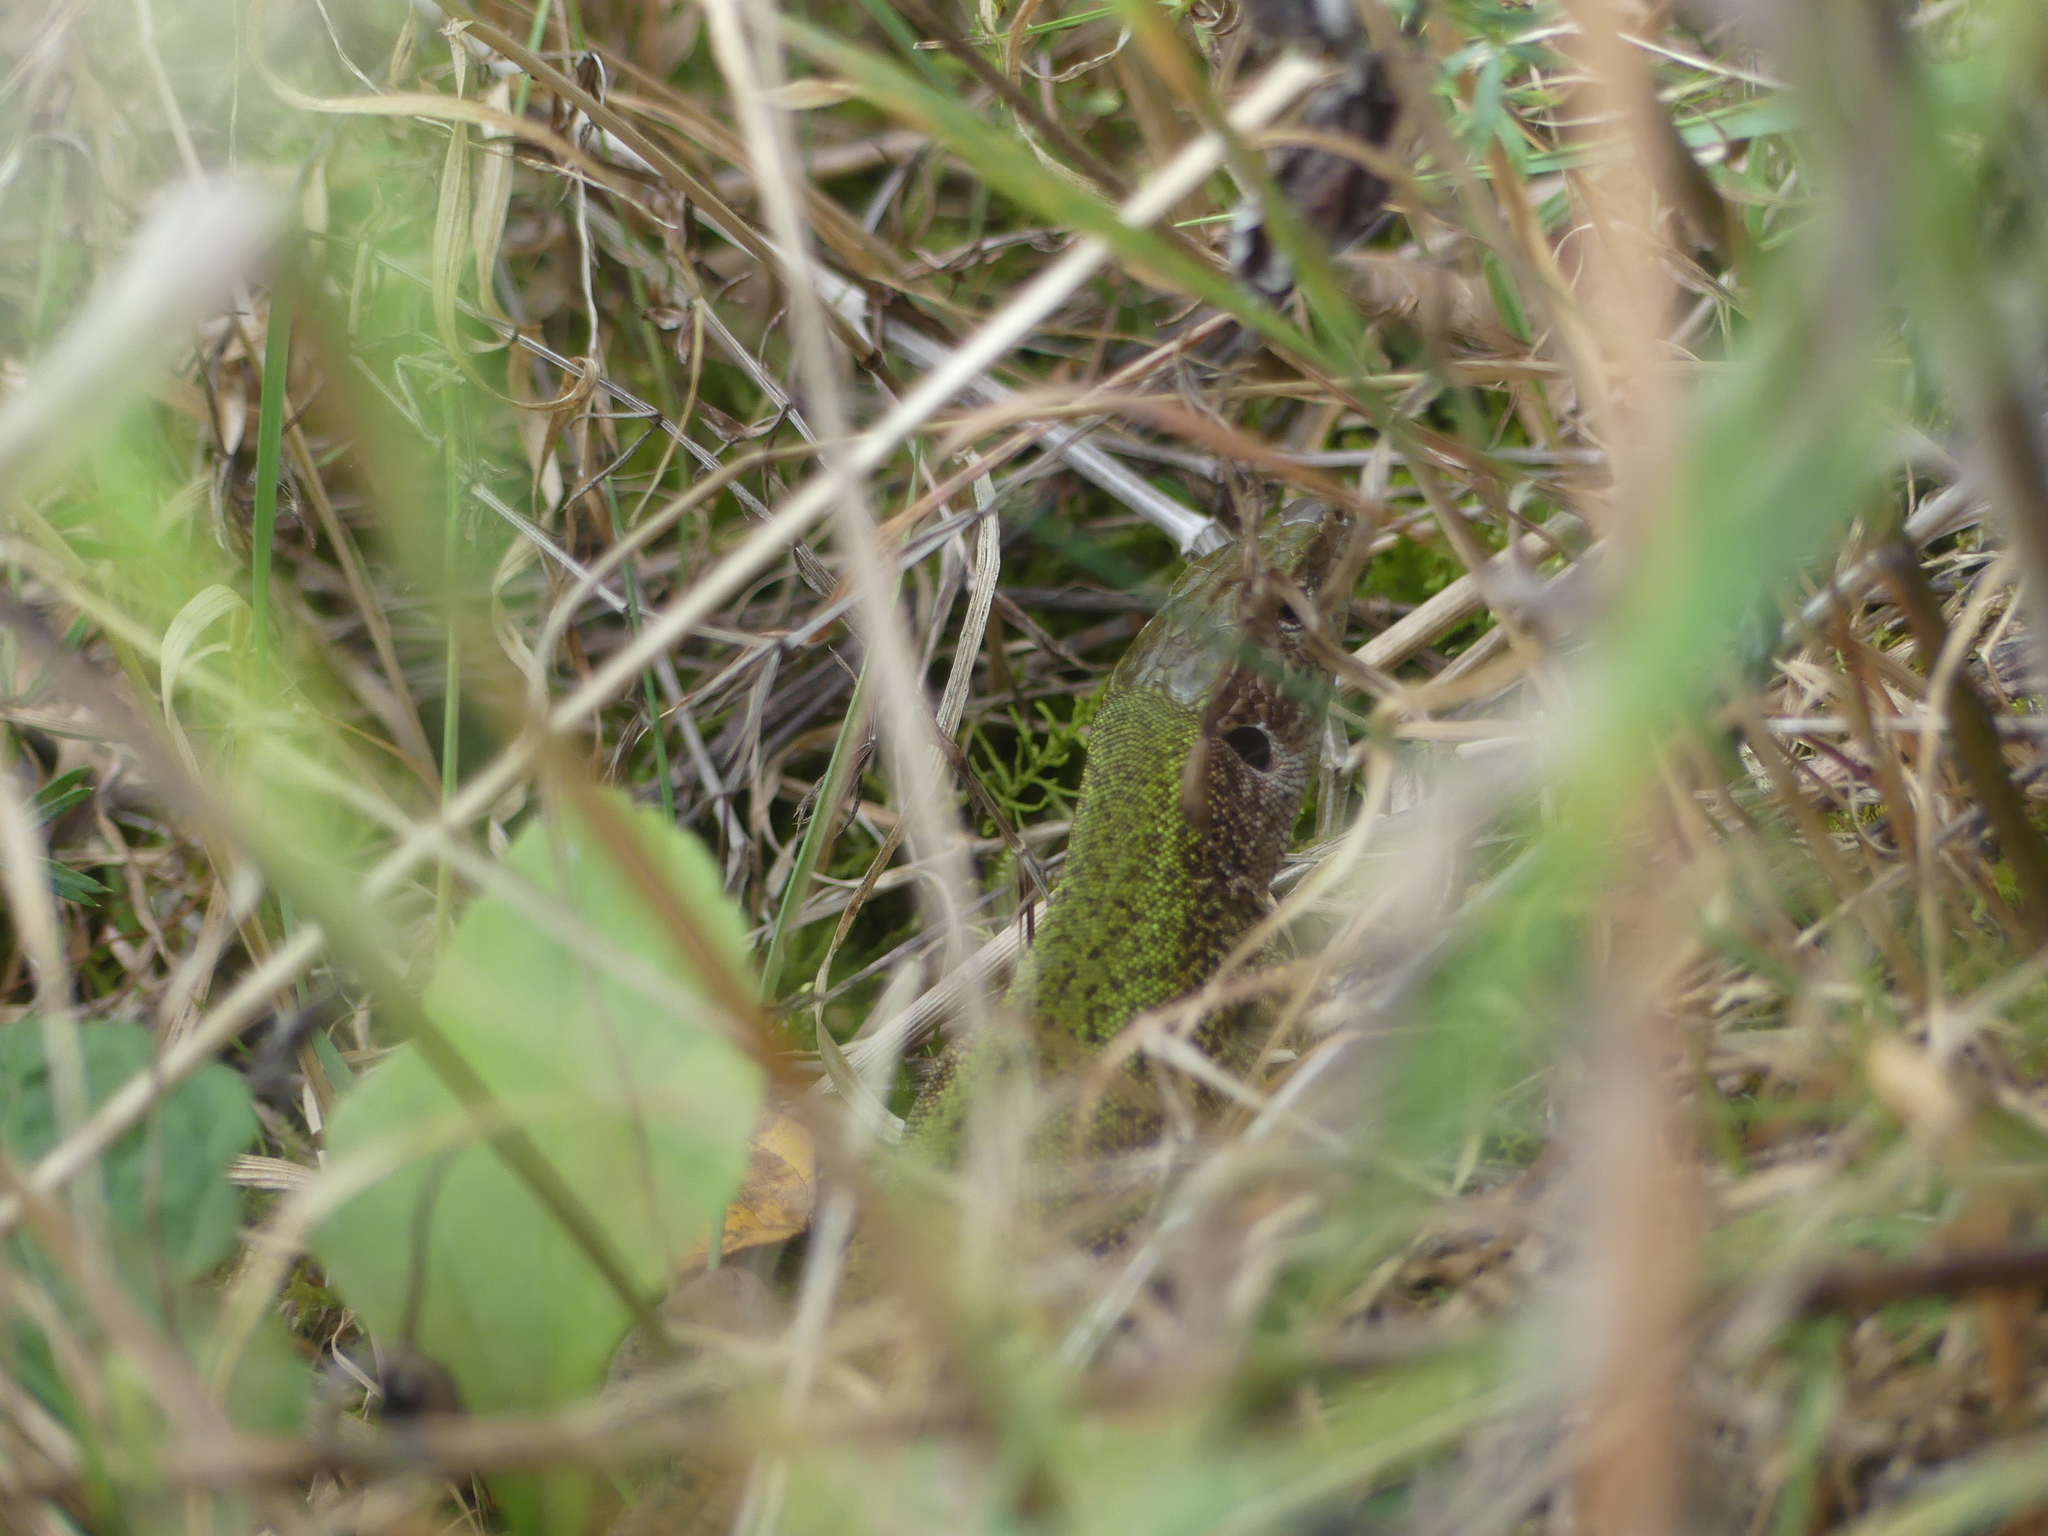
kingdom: Animalia
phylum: Chordata
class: Squamata
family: Lacertidae
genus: Lacerta
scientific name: Lacerta viridis
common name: European green lizard
